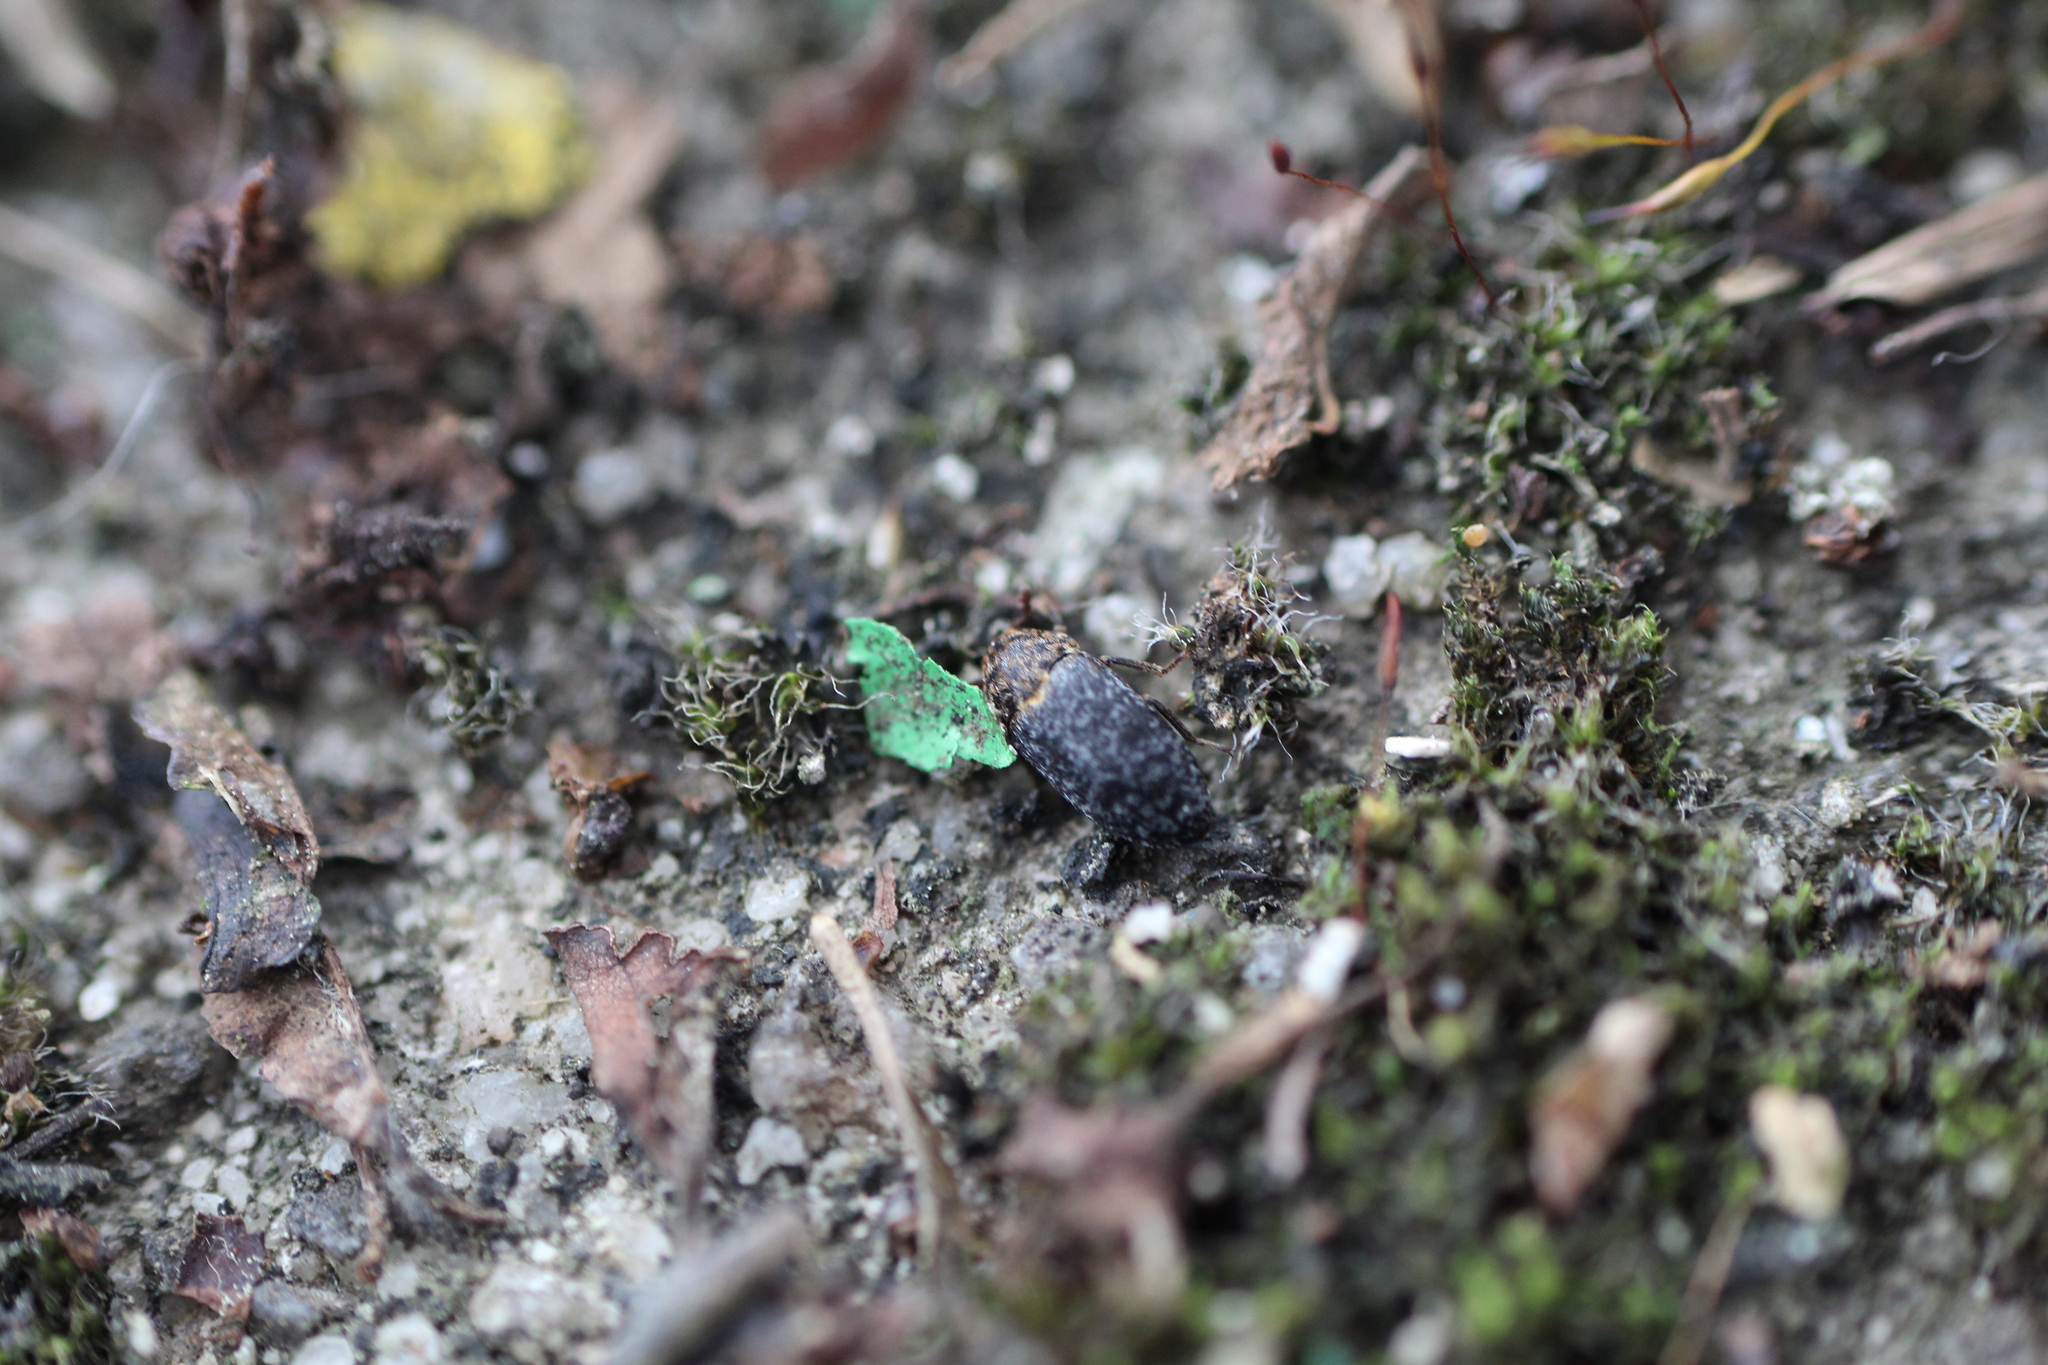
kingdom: Animalia
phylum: Arthropoda
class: Insecta
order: Coleoptera
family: Dermestidae
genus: Dermestes
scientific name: Dermestes undulatus
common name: Wavy carpet beetle
